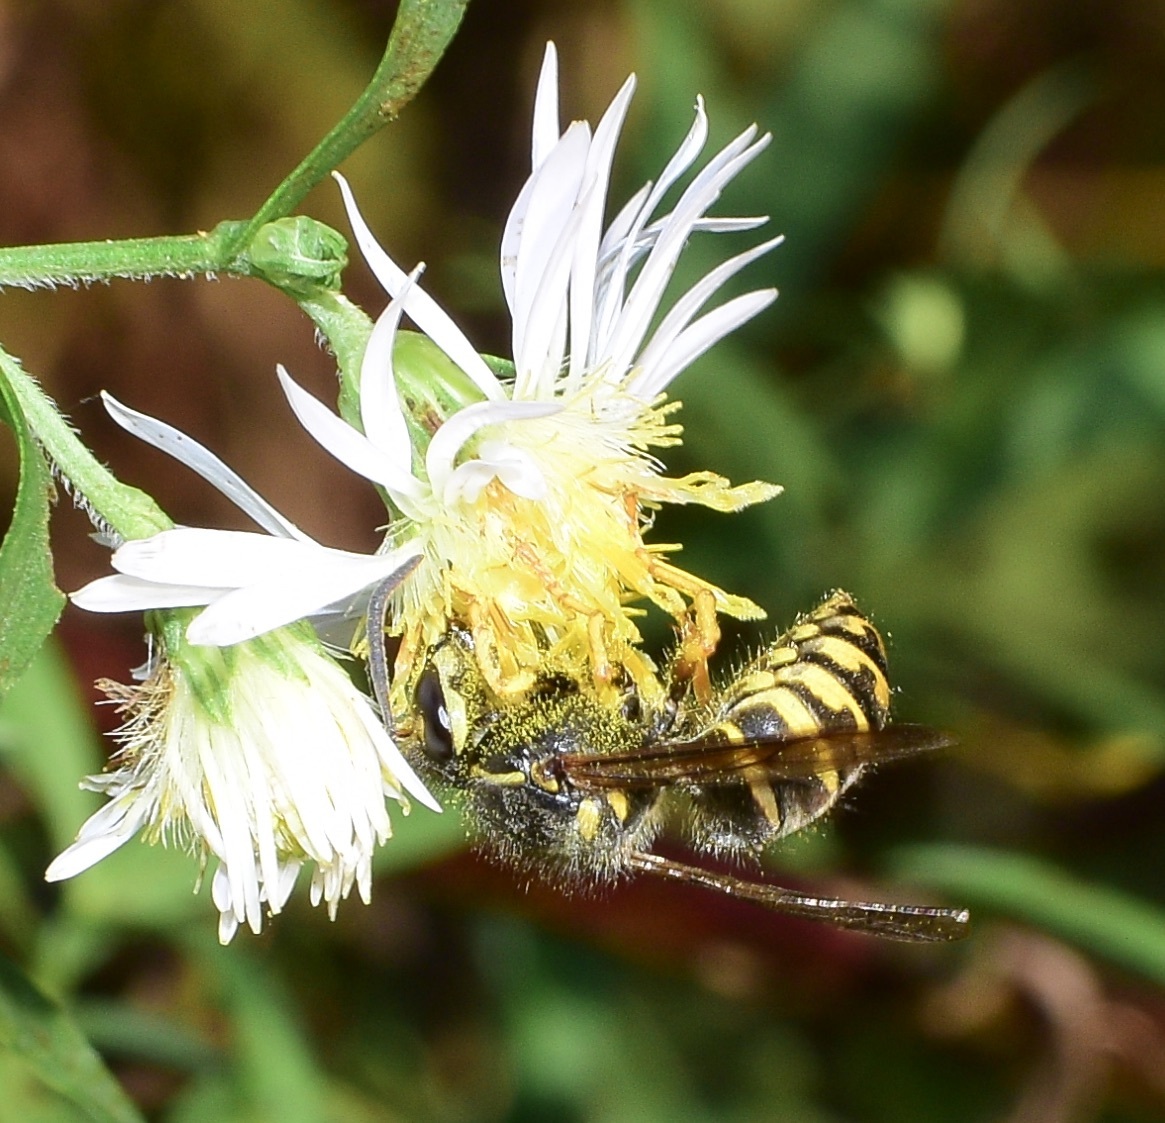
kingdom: Animalia
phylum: Arthropoda
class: Insecta
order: Hymenoptera
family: Vespidae
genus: Dolichovespula
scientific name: Dolichovespula arenaria
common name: Aerial yellowjacket
